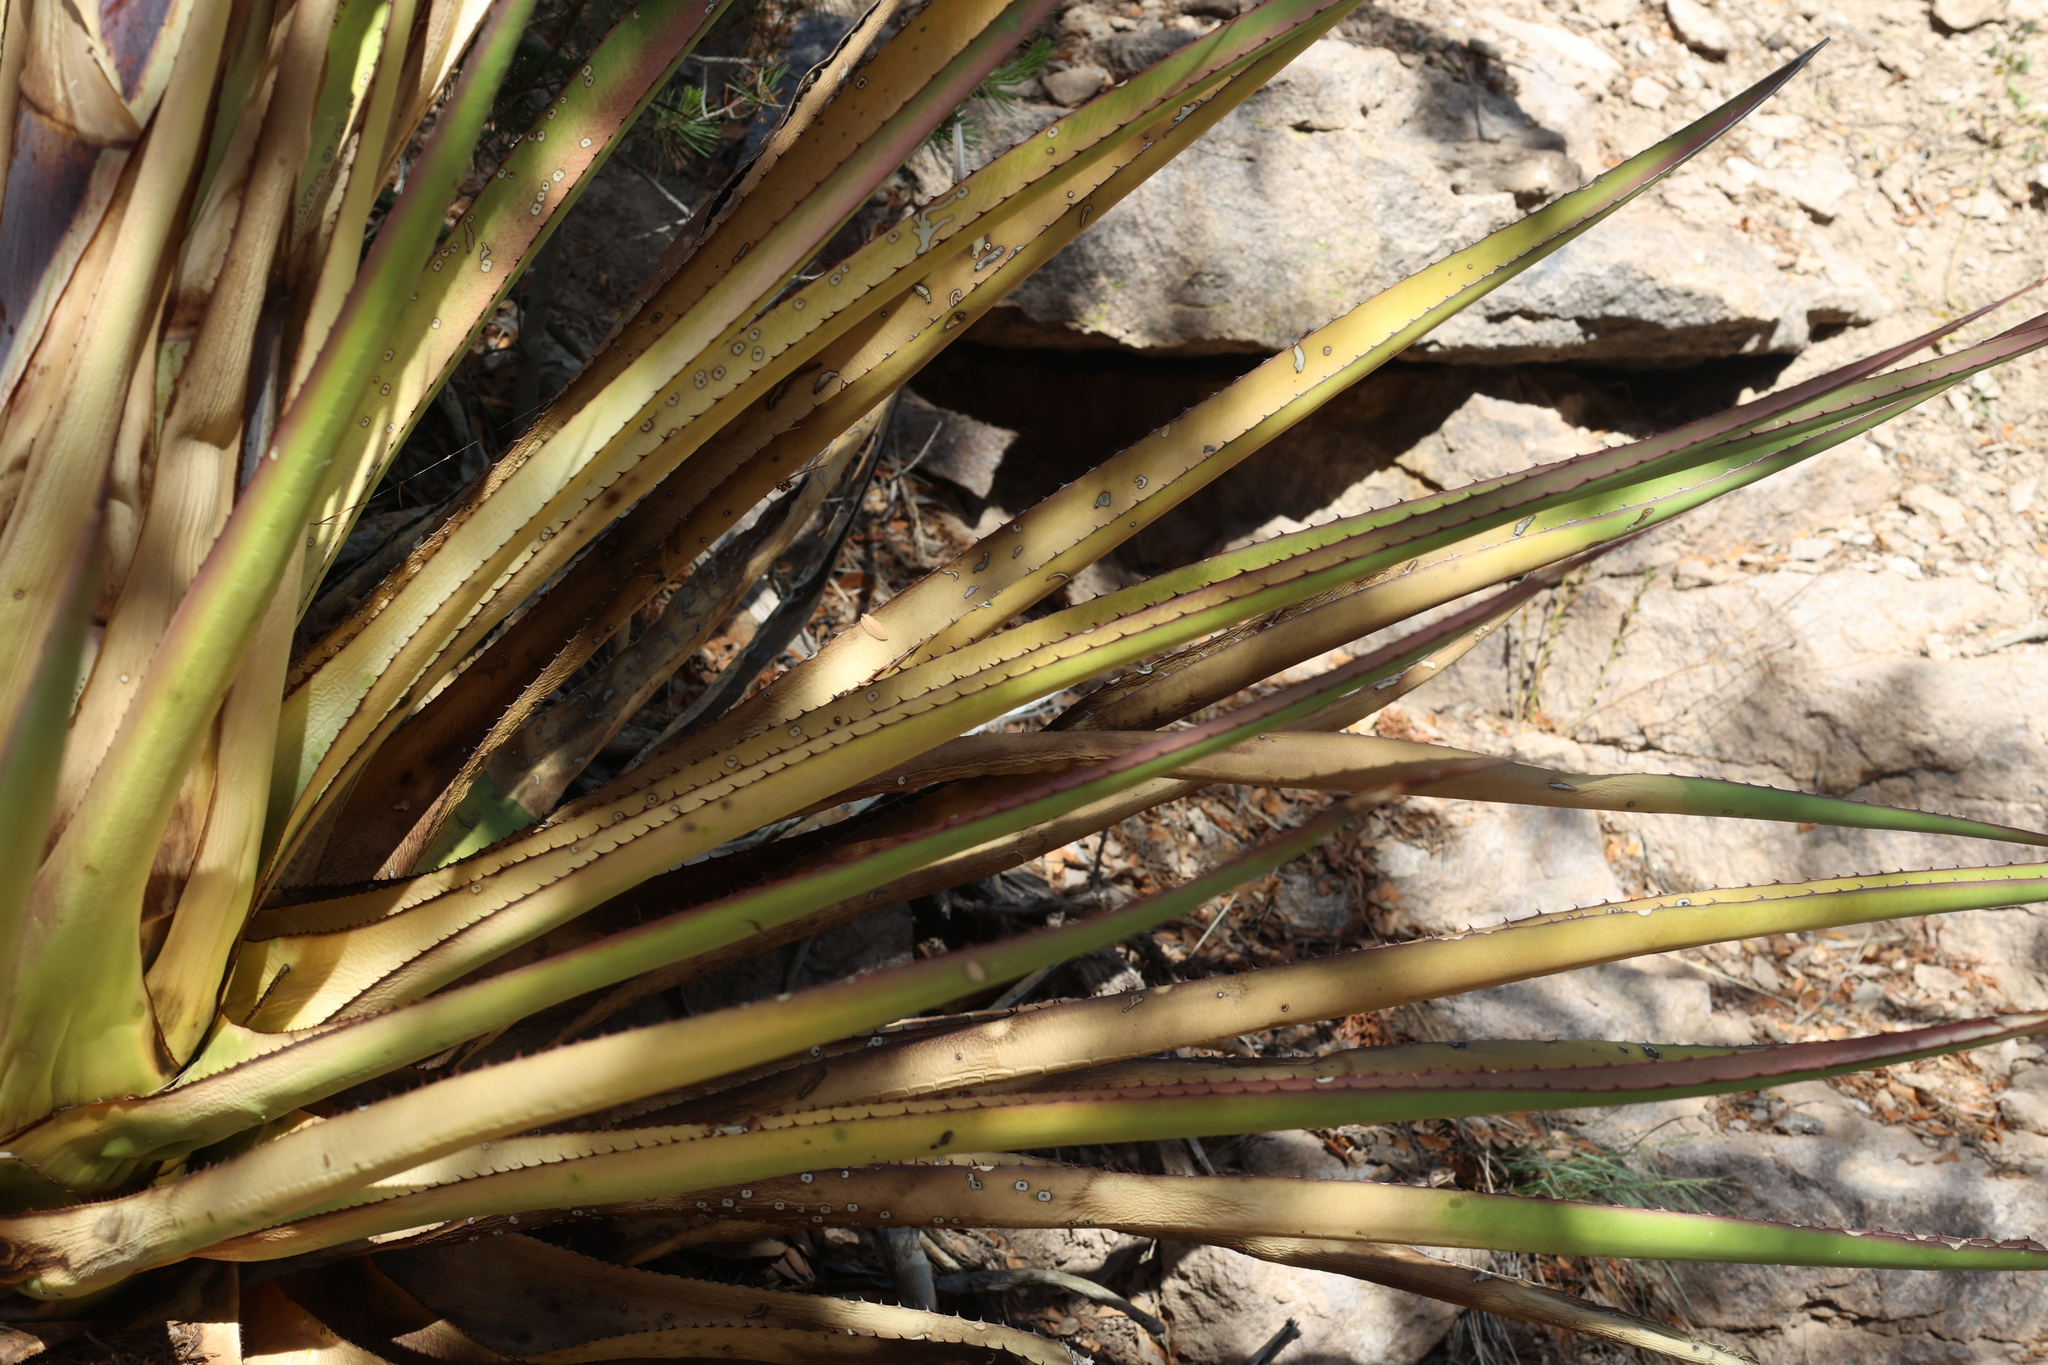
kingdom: Plantae
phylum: Tracheophyta
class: Liliopsida
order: Asparagales
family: Asparagaceae
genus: Agave
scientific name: Agave palmeri
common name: Palmer agave
